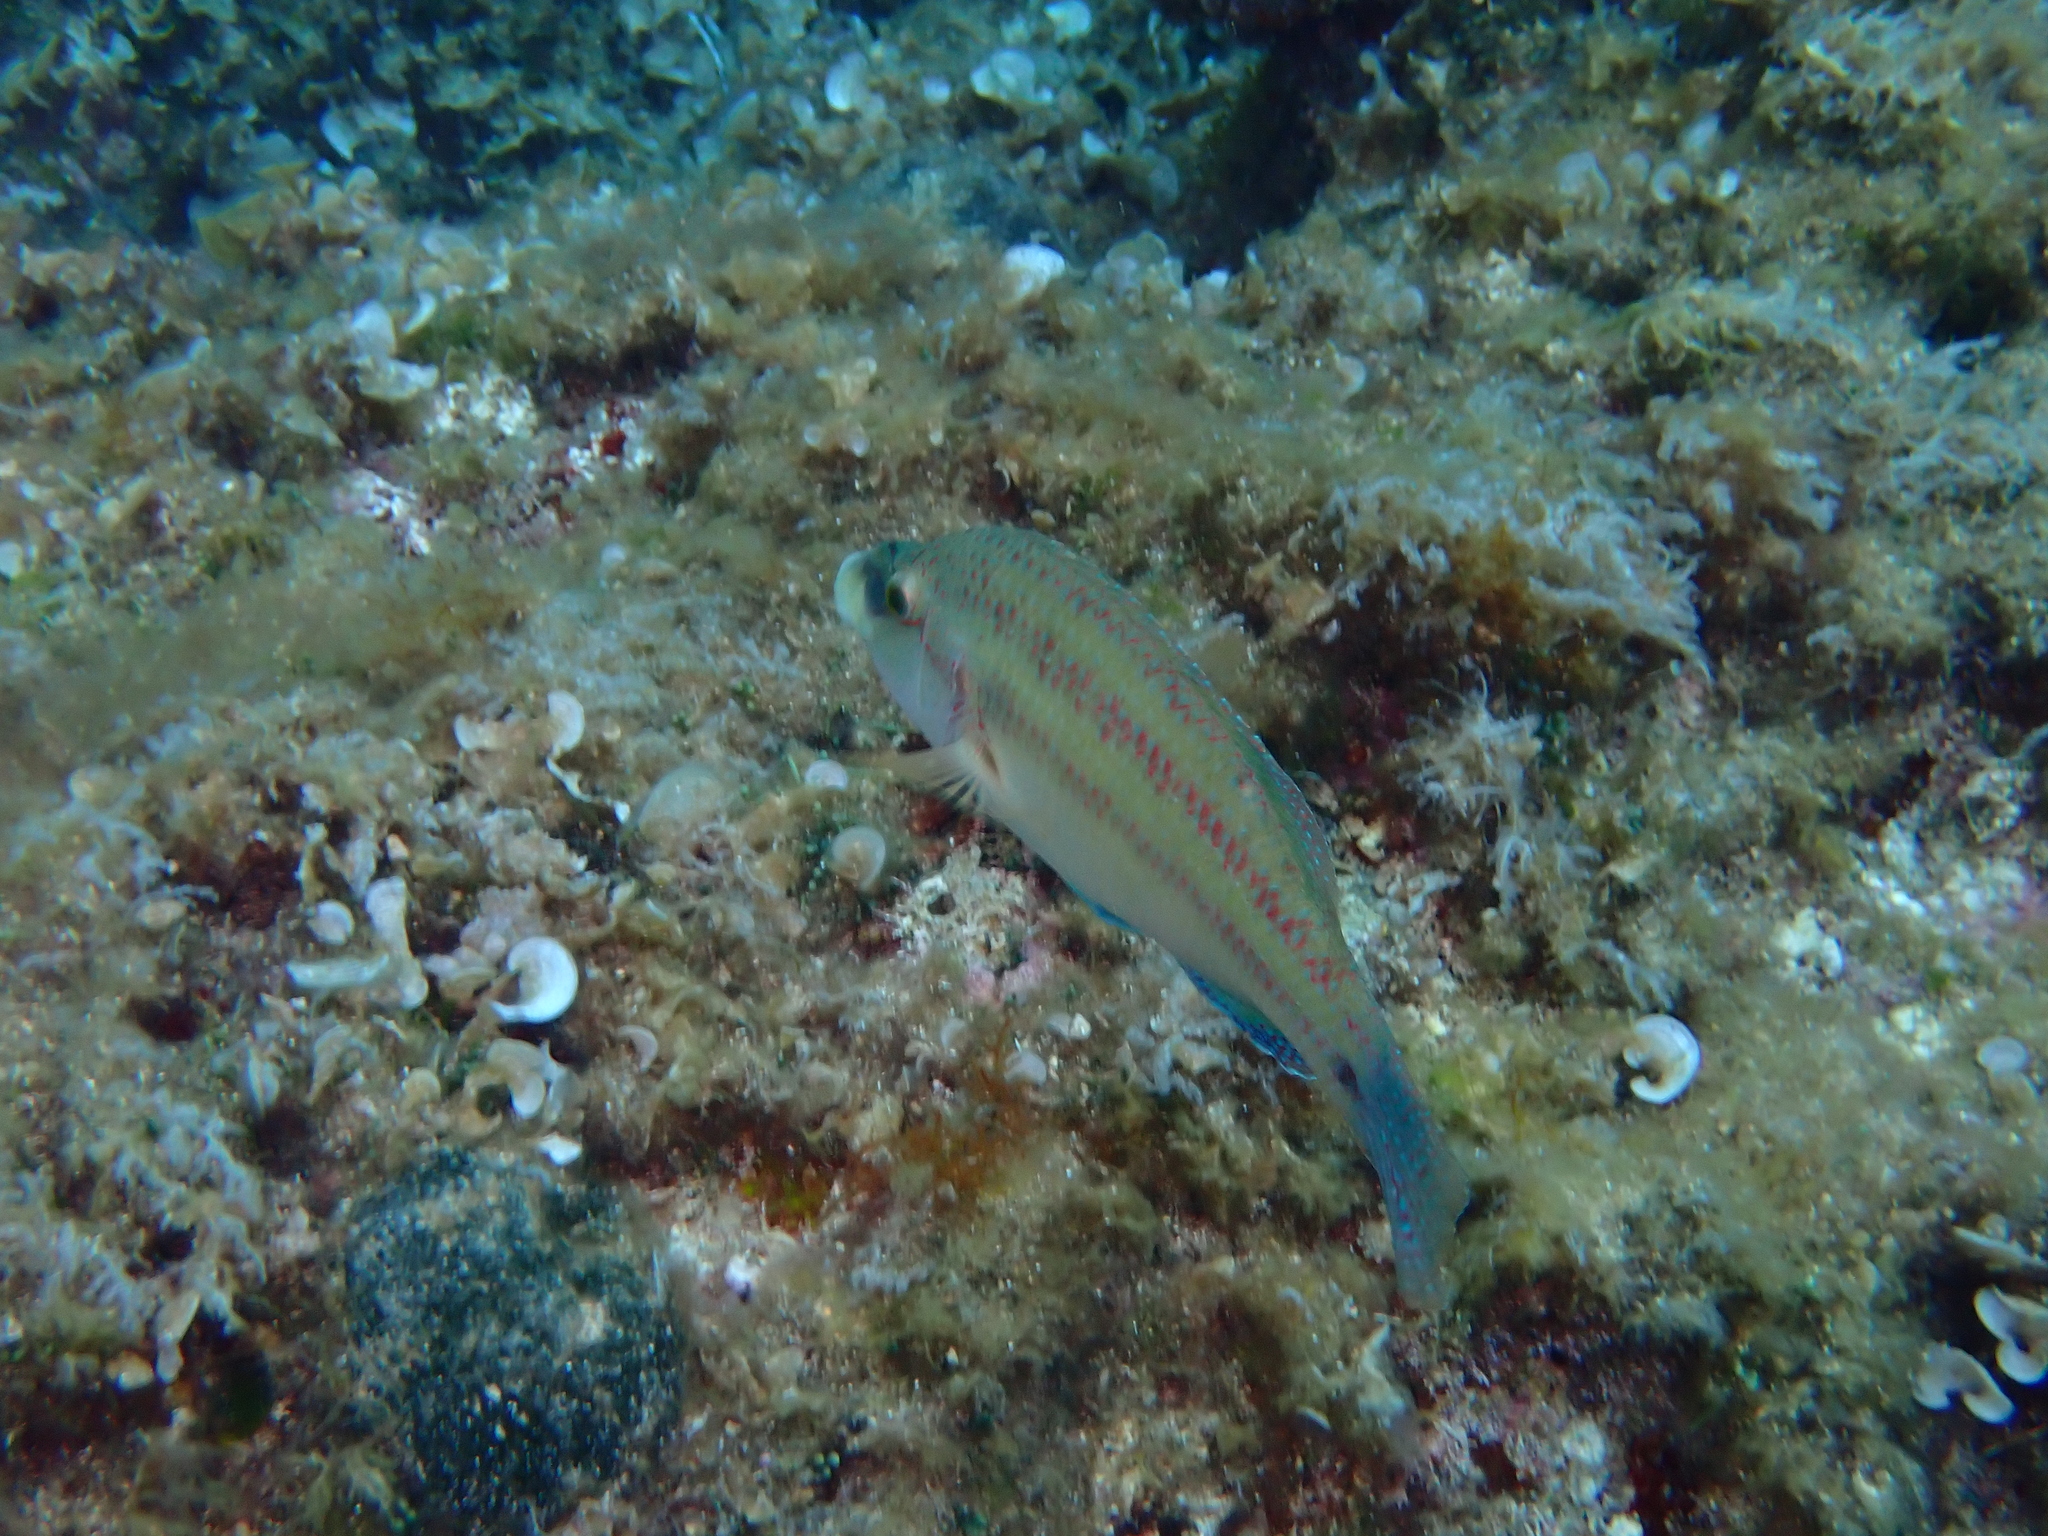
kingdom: Animalia
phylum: Chordata
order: Perciformes
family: Labridae
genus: Symphodus
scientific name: Symphodus tinca
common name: Peacock wrasse
